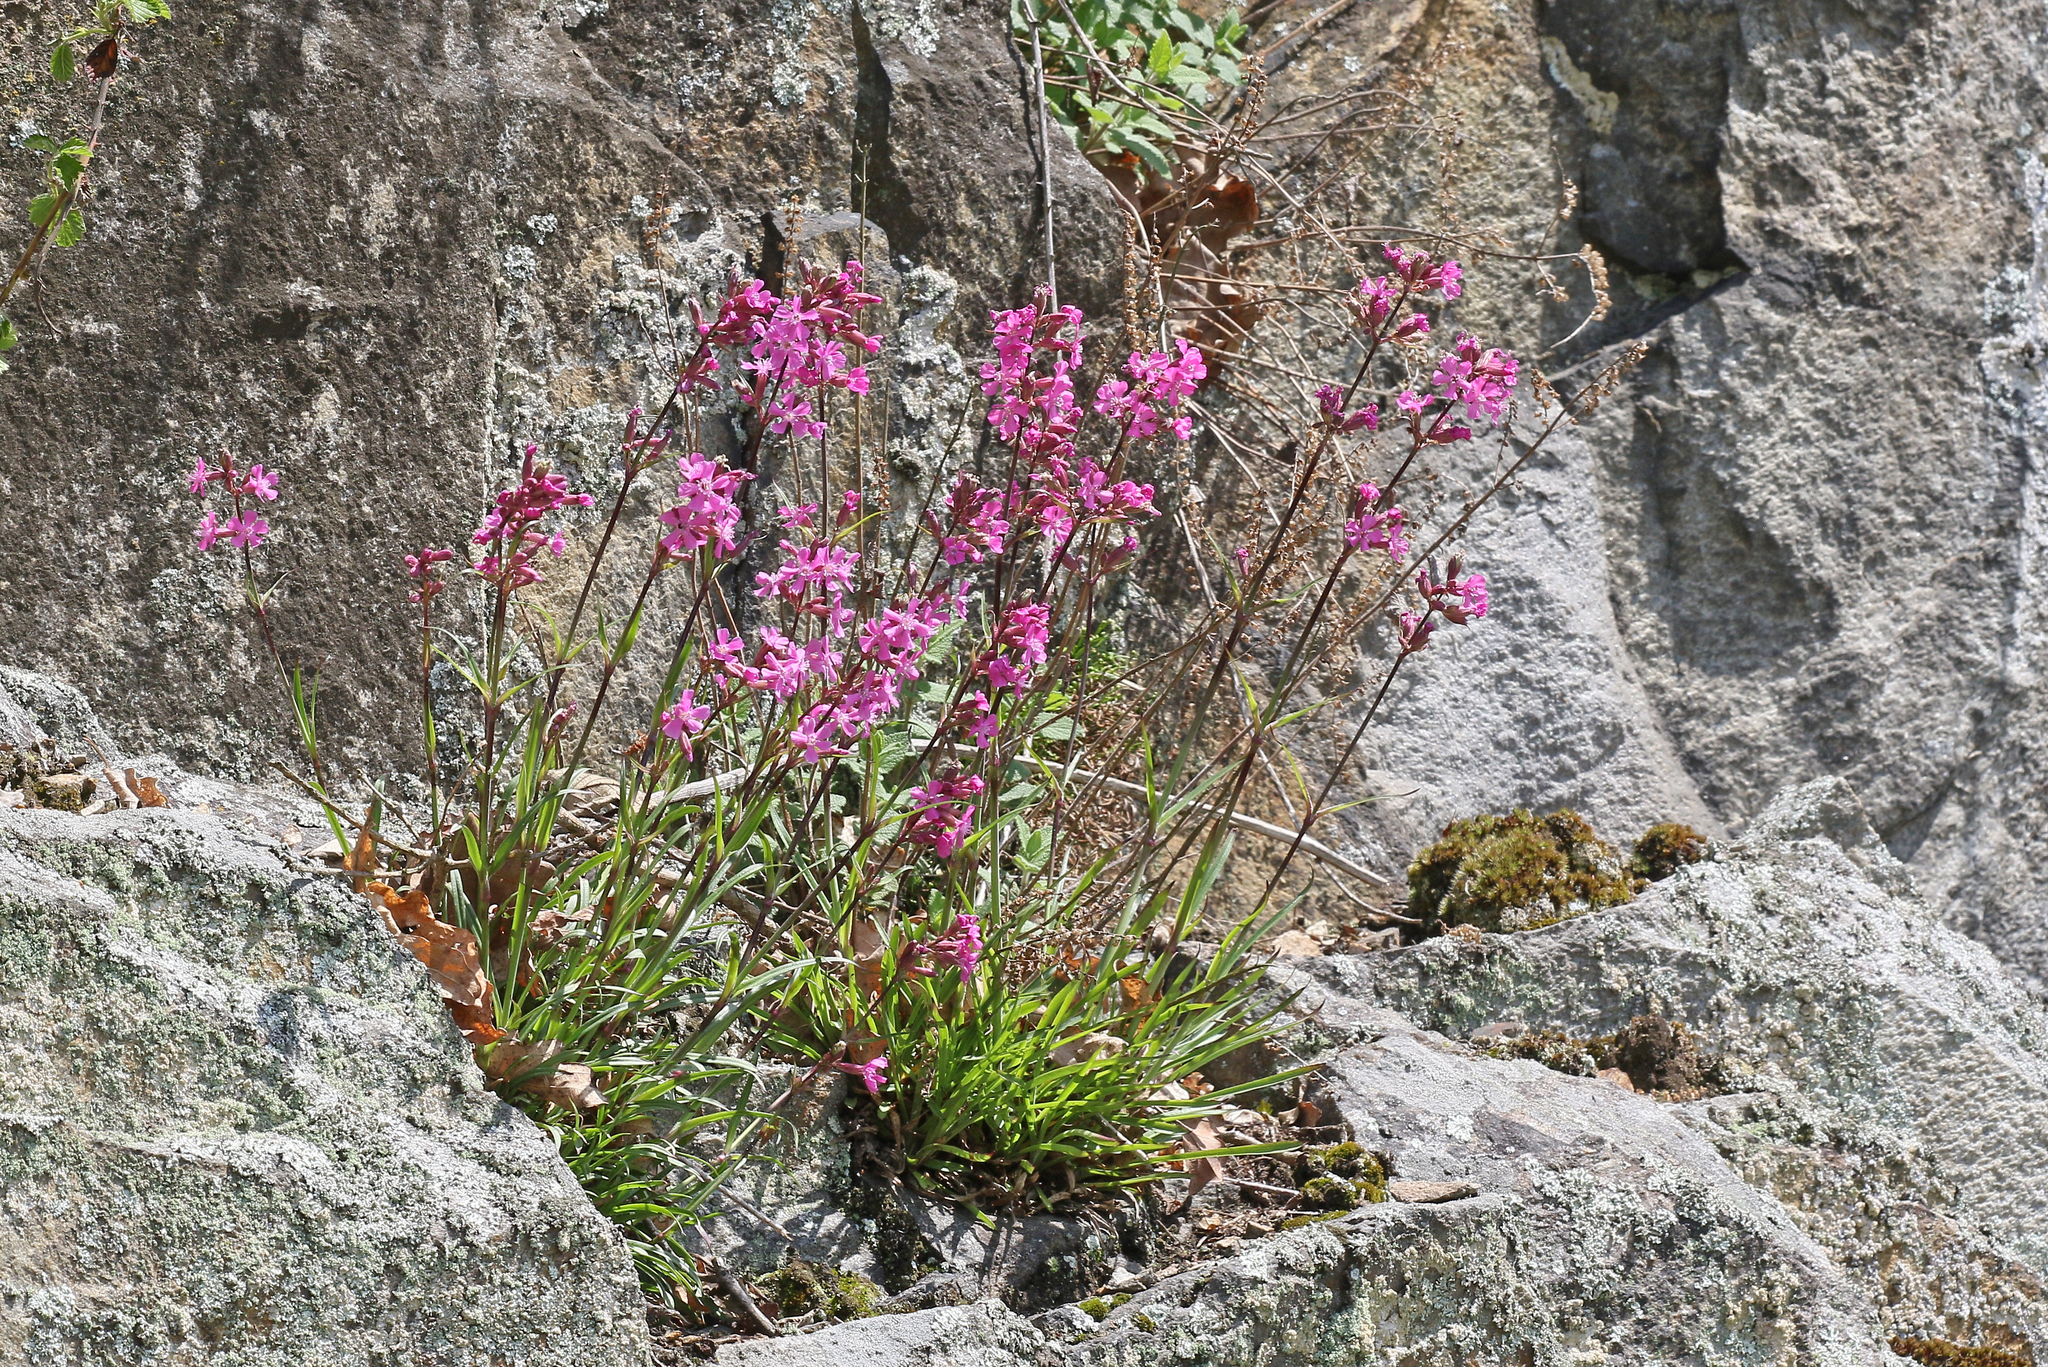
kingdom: Plantae
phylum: Tracheophyta
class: Magnoliopsida
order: Caryophyllales
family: Caryophyllaceae
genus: Viscaria
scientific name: Viscaria vulgaris
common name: Clammy campion
